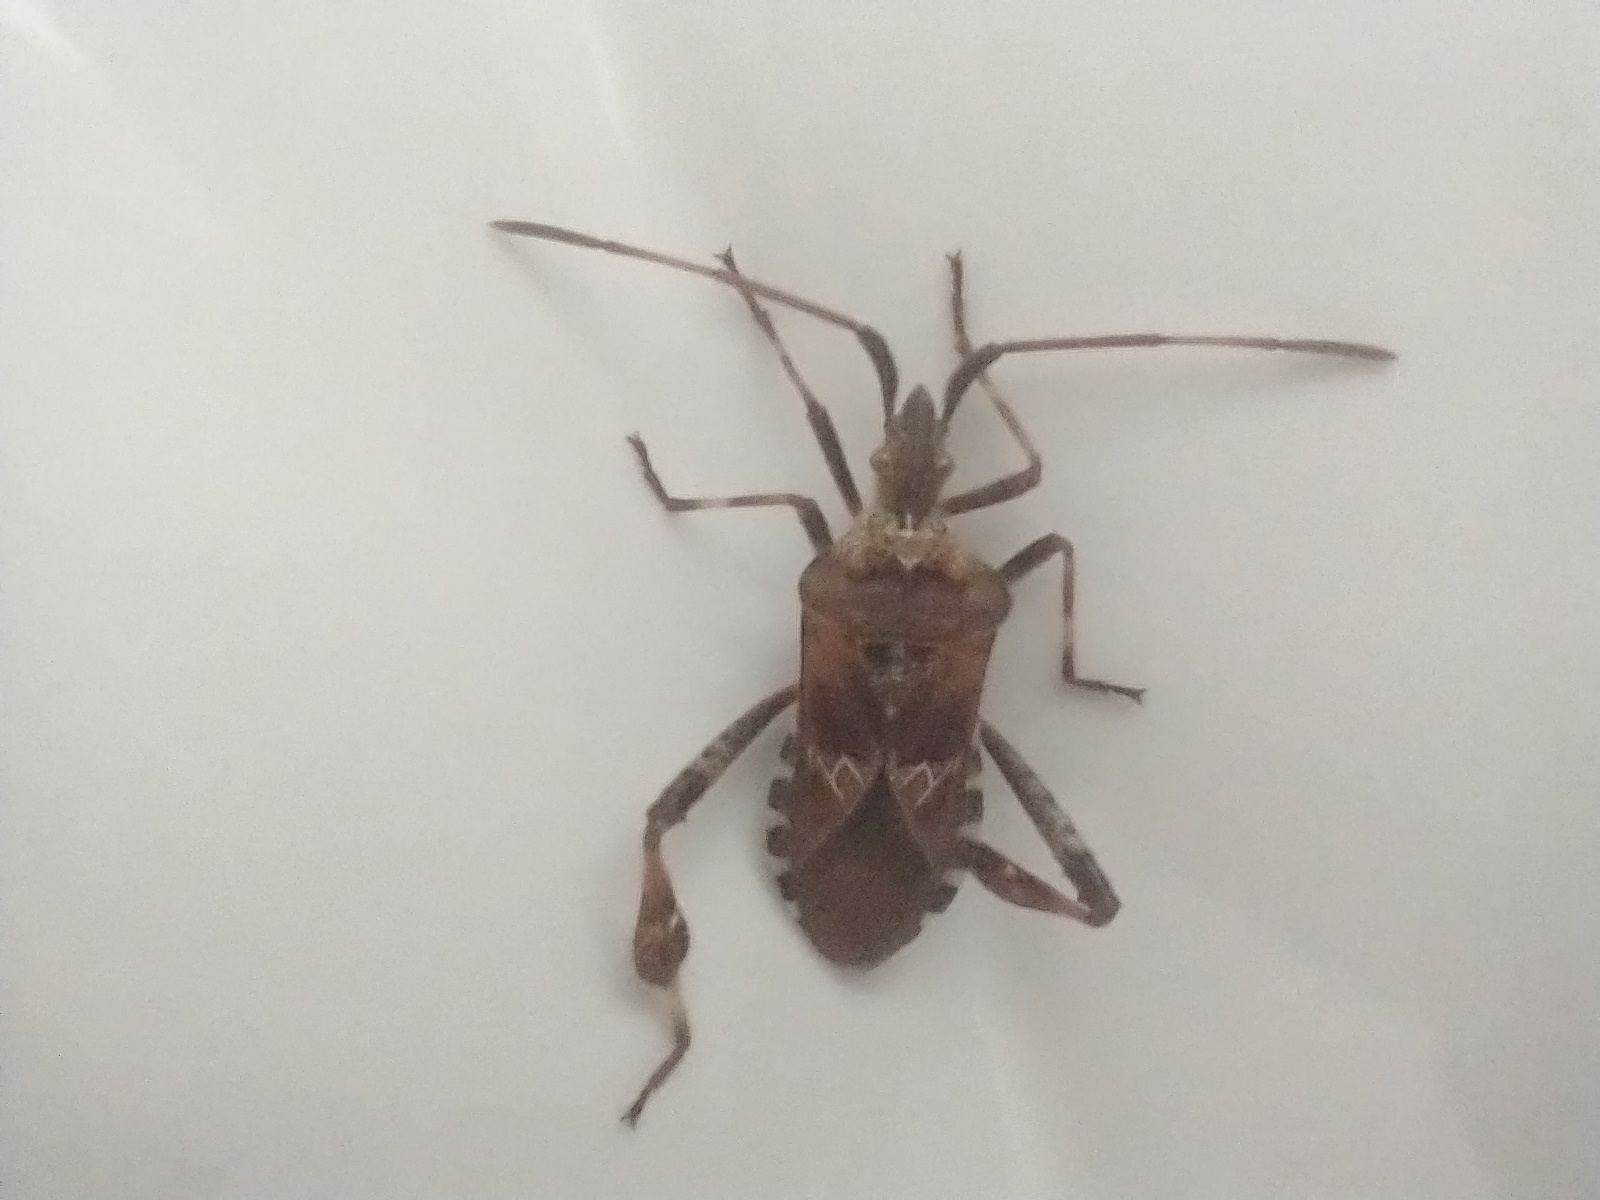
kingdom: Animalia
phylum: Arthropoda
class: Insecta
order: Hemiptera
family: Coreidae
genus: Leptoglossus
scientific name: Leptoglossus occidentalis
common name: Western conifer-seed bug
